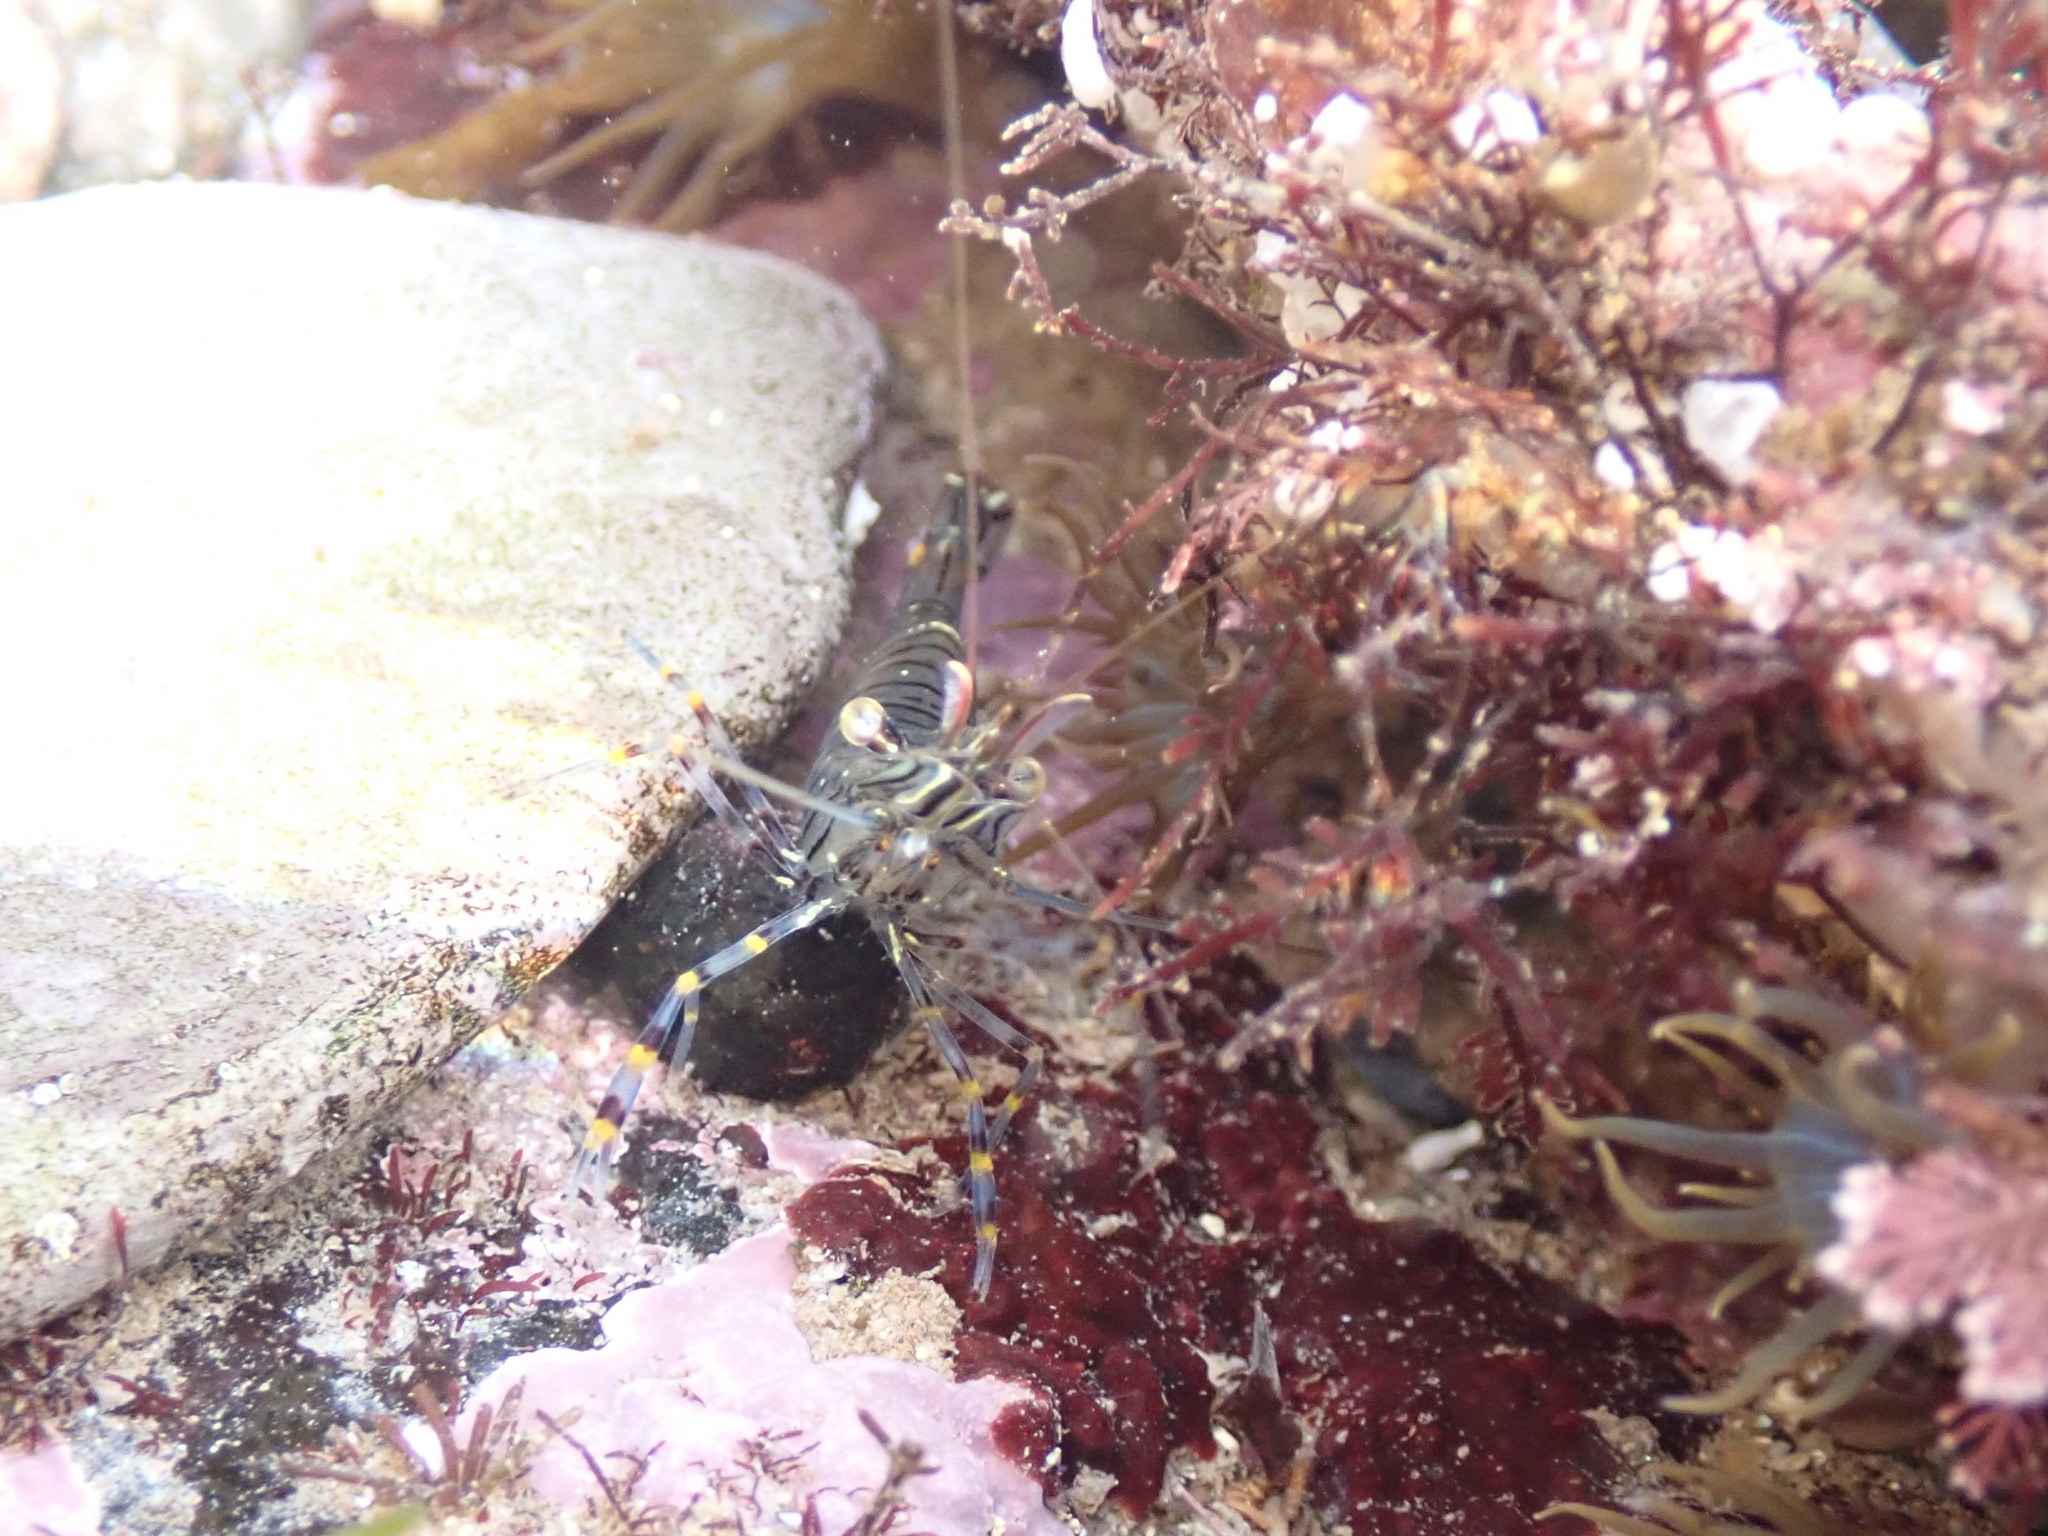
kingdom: Animalia
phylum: Arthropoda
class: Malacostraca
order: Decapoda
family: Palaemonidae
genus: Palaemon
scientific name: Palaemon serratus
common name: Common prawn
